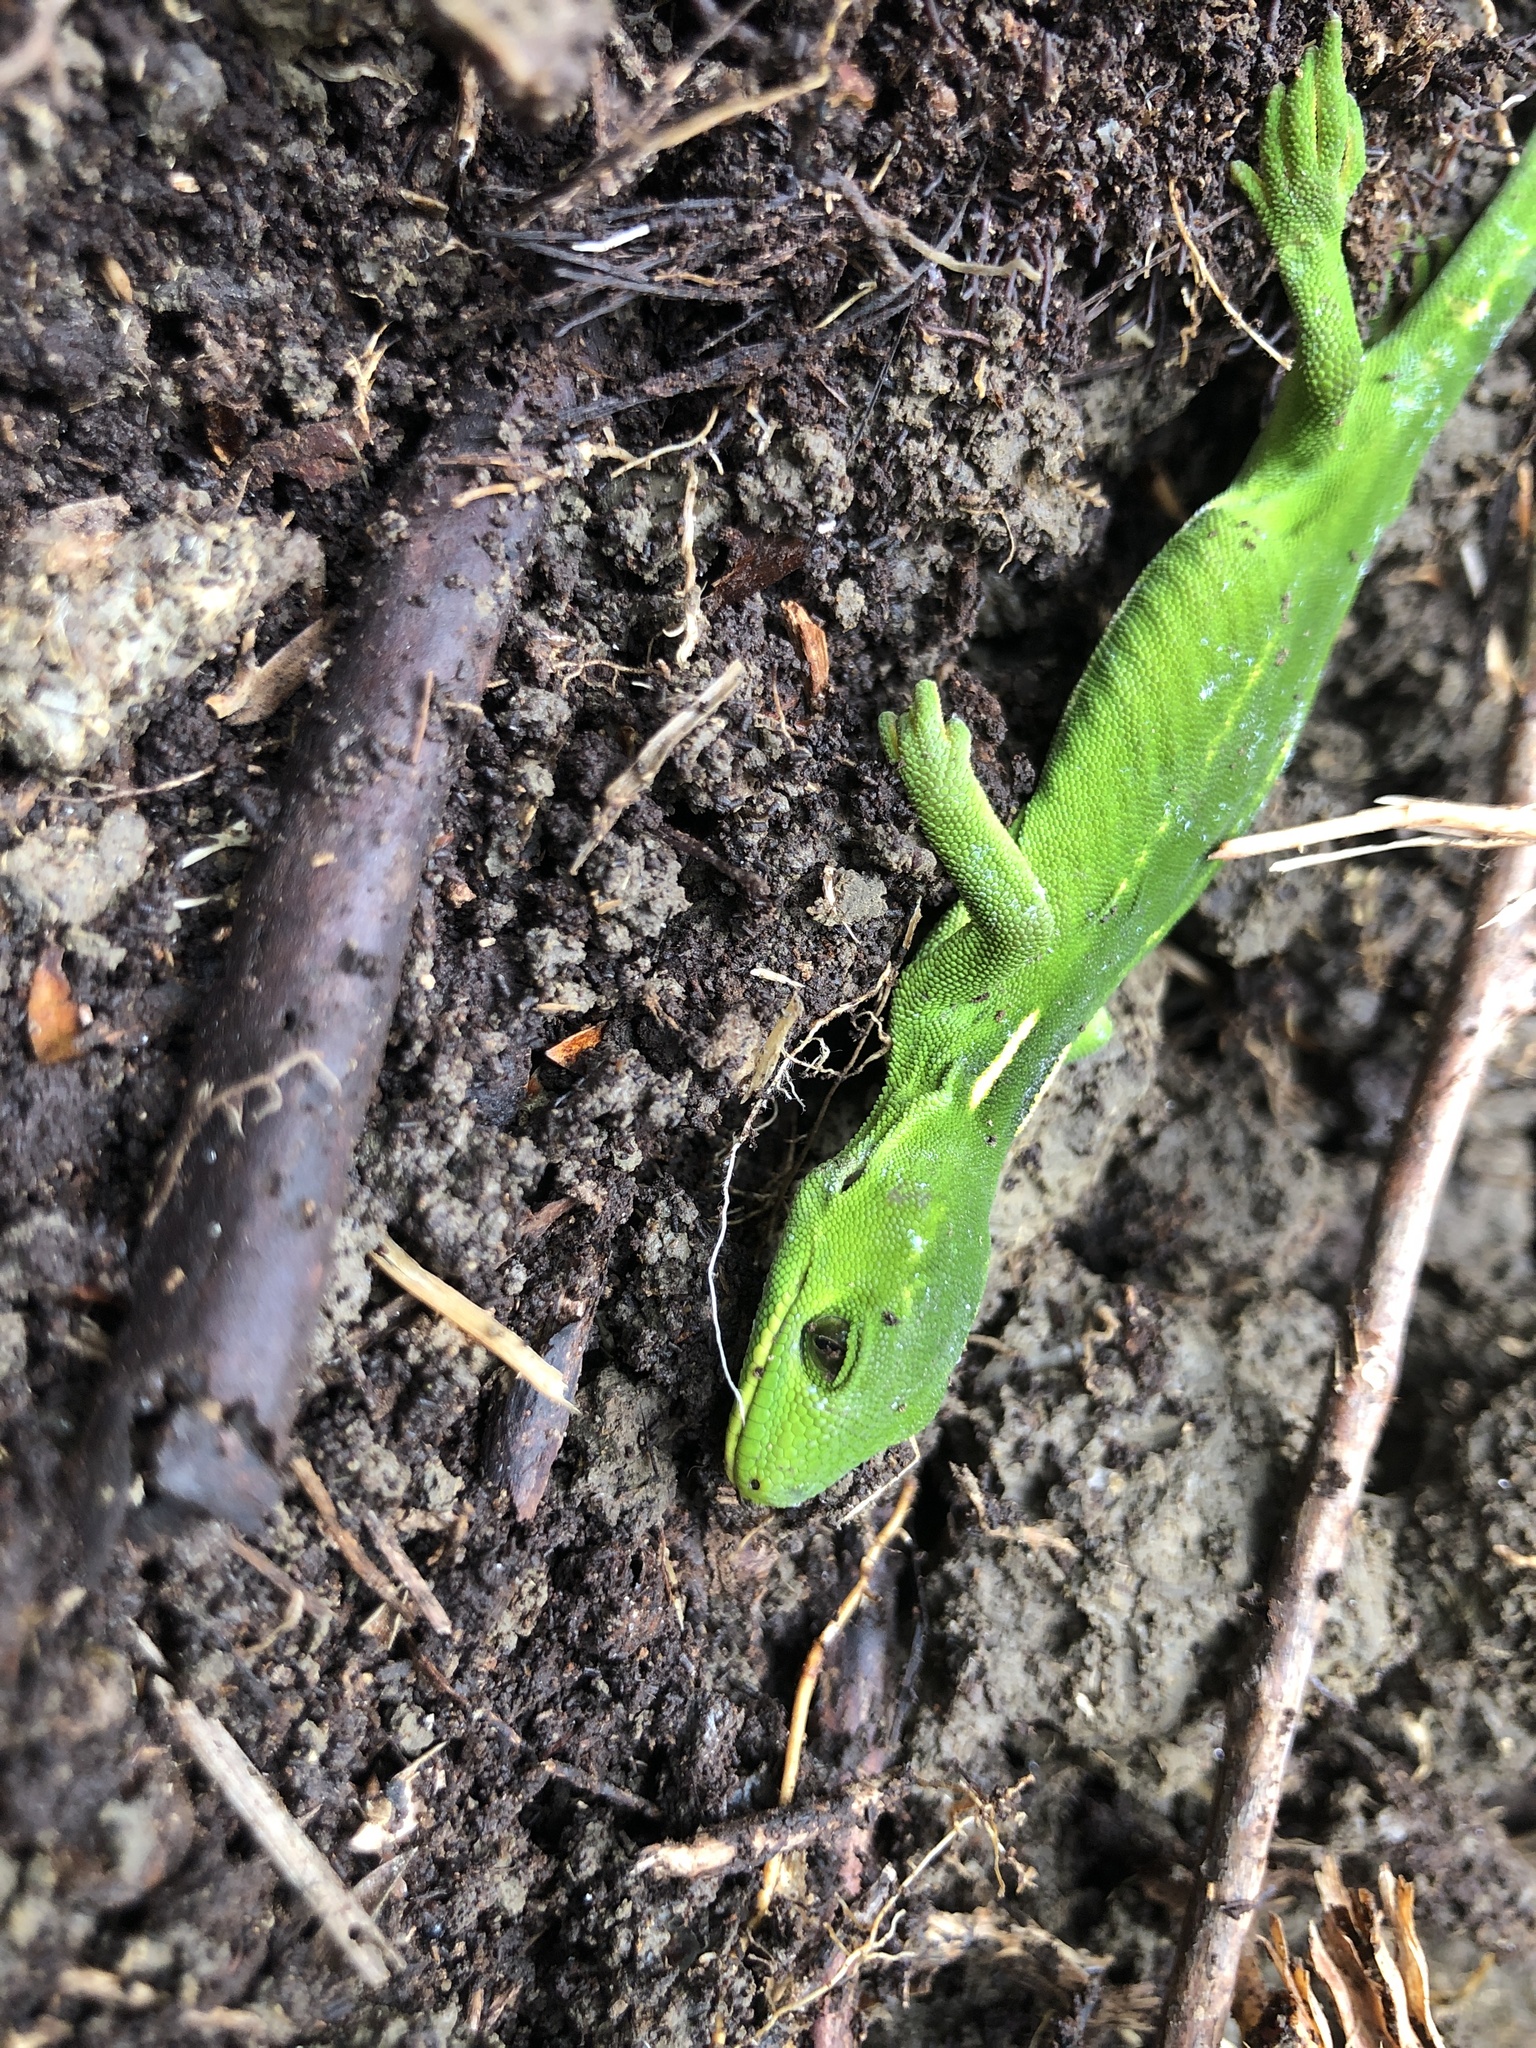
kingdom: Animalia
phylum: Chordata
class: Squamata
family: Diplodactylidae
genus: Naultinus
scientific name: Naultinus elegans
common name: Auckland green gecko
